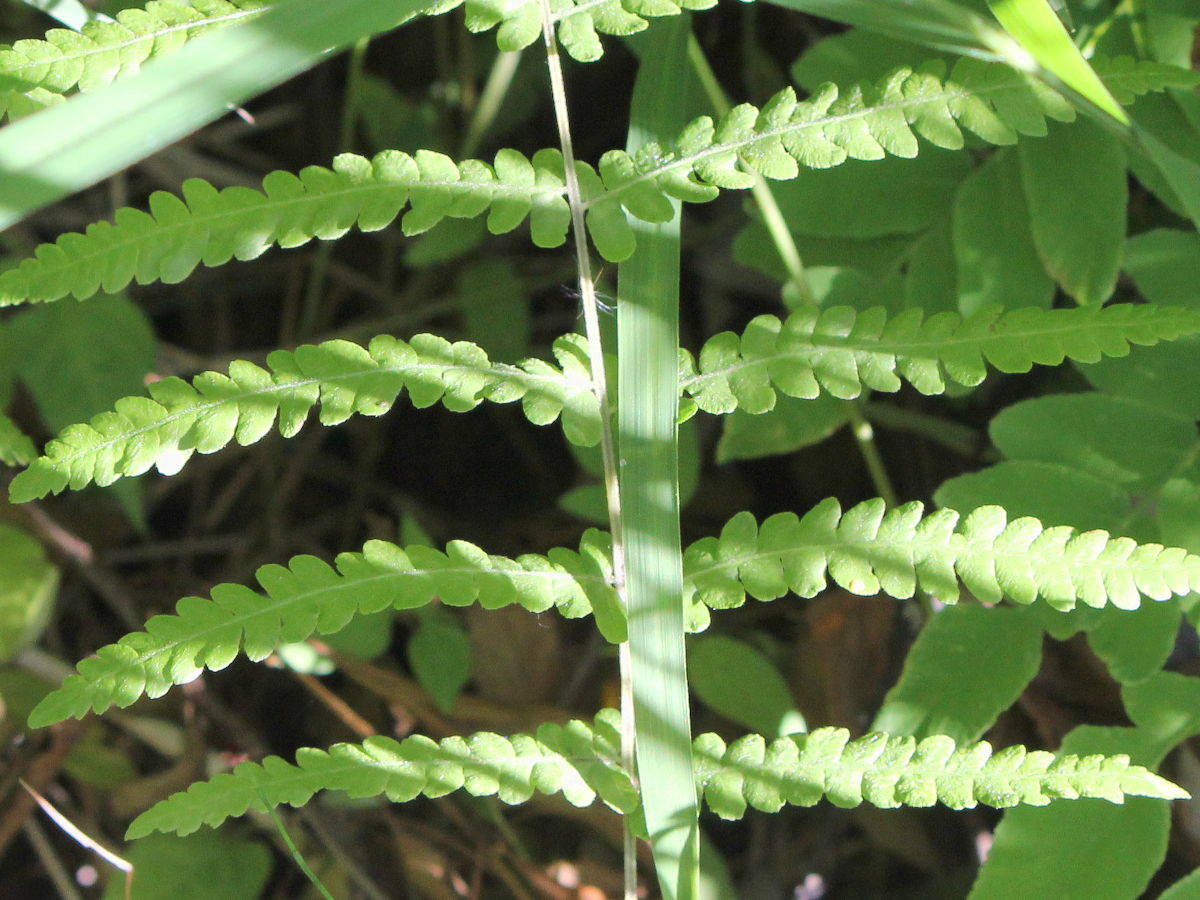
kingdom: Plantae
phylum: Tracheophyta
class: Polypodiopsida
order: Polypodiales
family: Thelypteridaceae
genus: Thelypteris
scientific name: Thelypteris palustris
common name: Marsh fern
